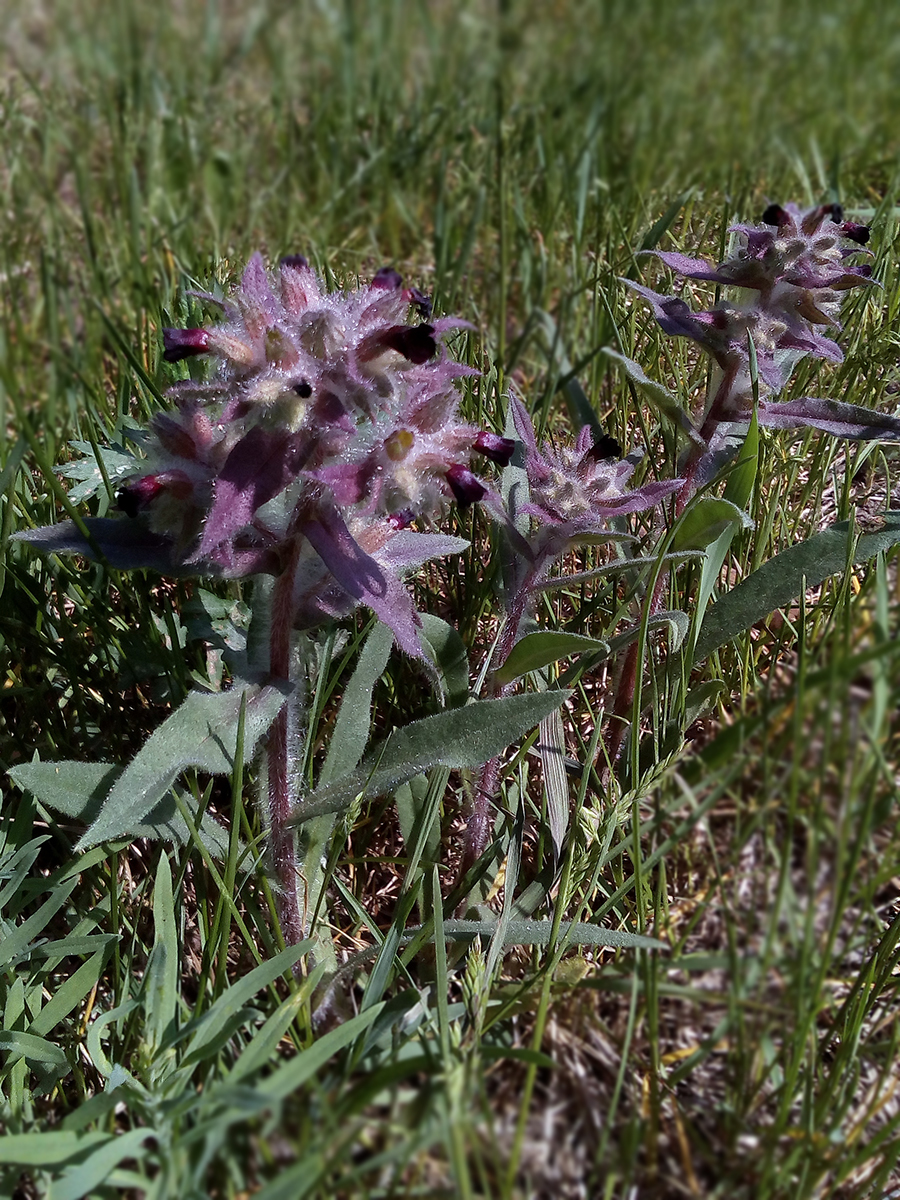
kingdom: Plantae
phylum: Tracheophyta
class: Magnoliopsida
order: Boraginales
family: Boraginaceae
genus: Nonea
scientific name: Nonea pulla
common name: Brown nonea
